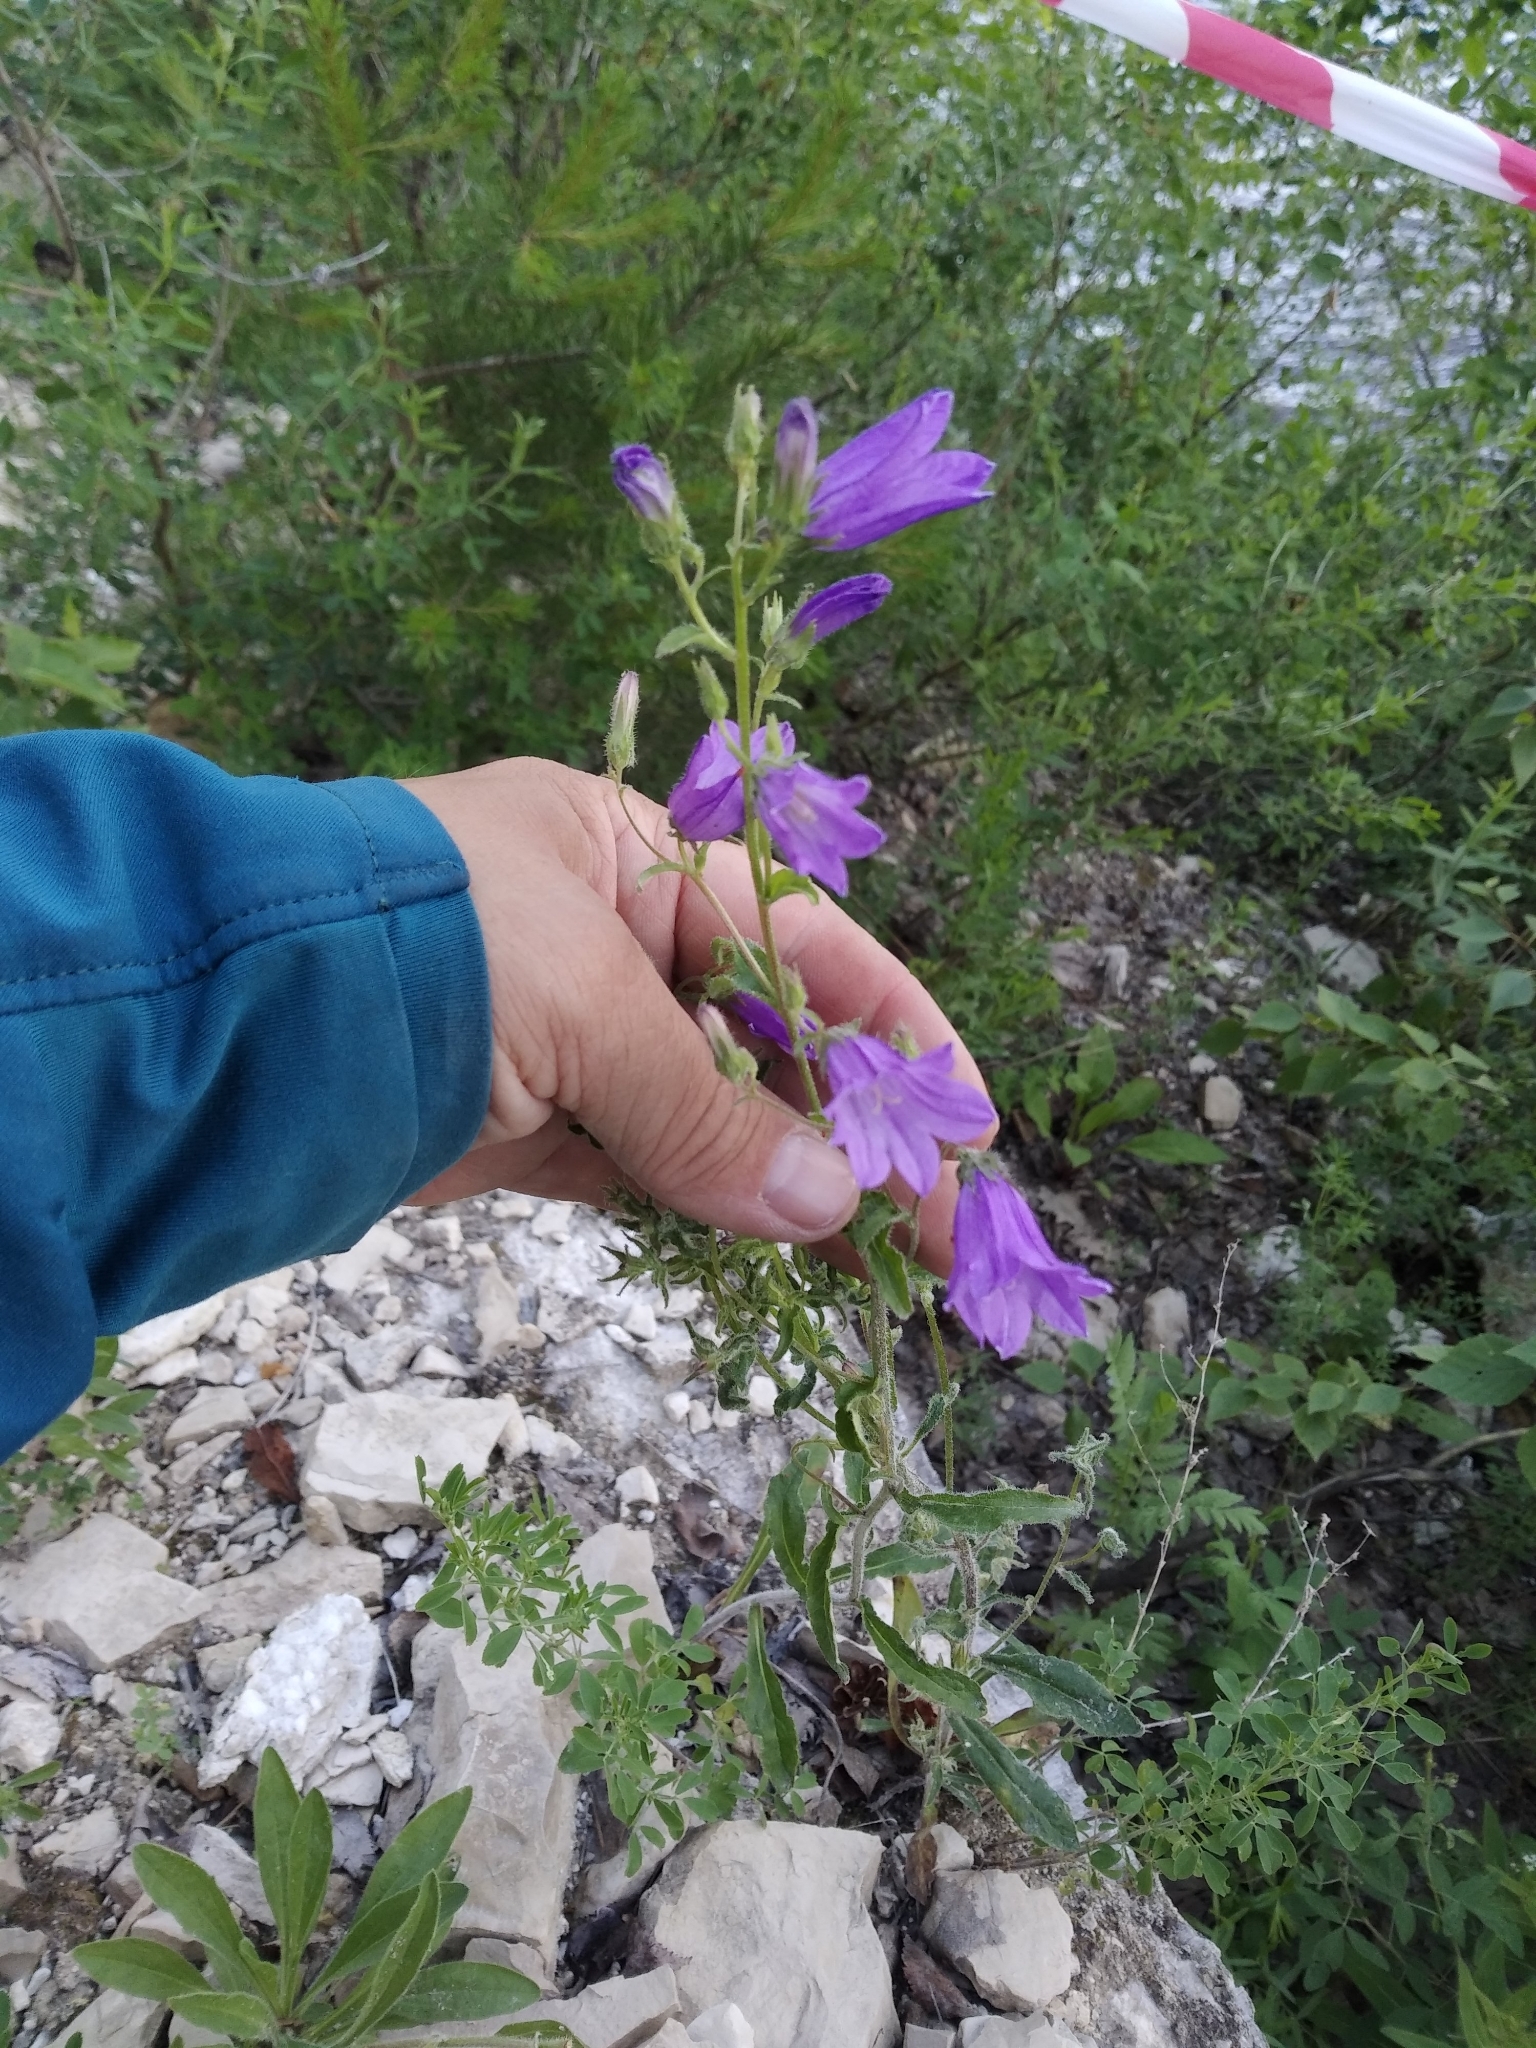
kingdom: Plantae
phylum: Tracheophyta
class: Magnoliopsida
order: Asterales
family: Campanulaceae
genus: Campanula
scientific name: Campanula sibirica
